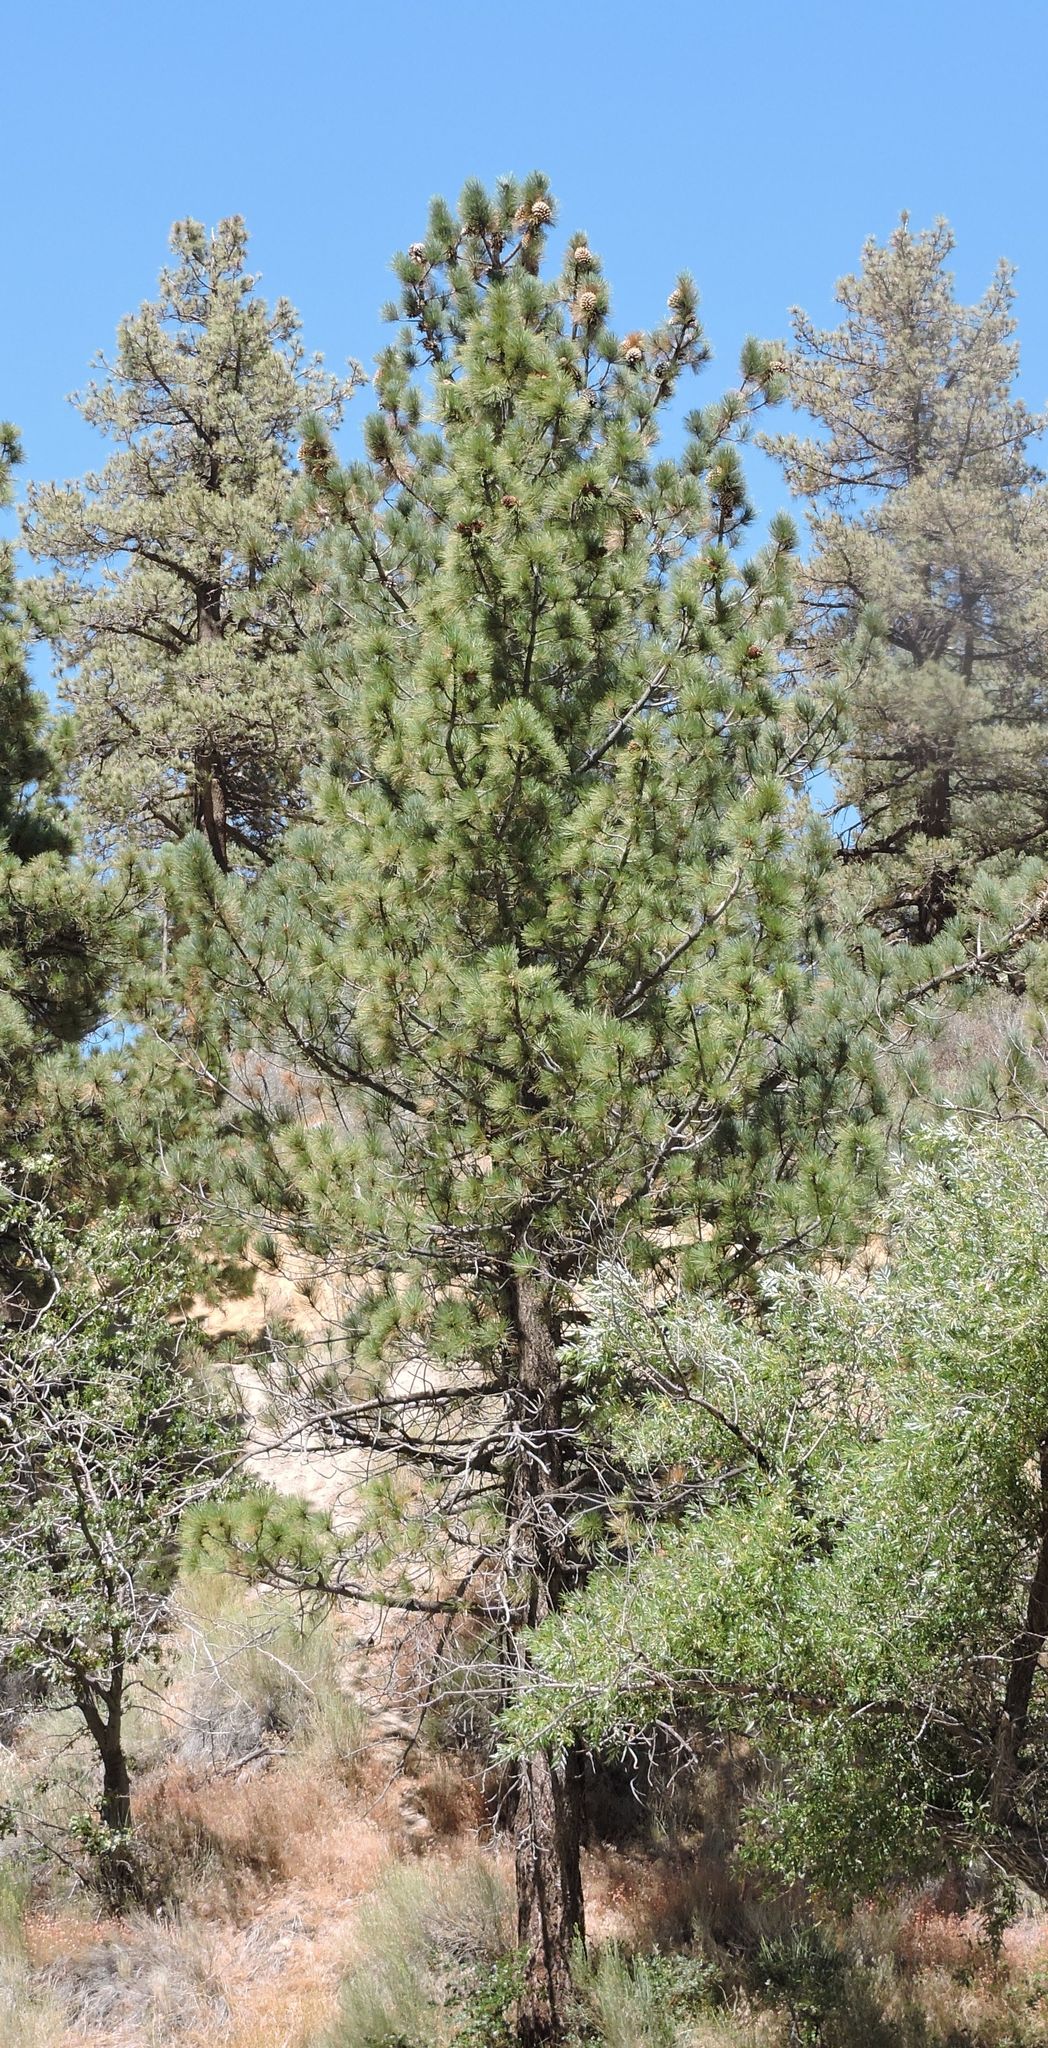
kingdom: Plantae
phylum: Tracheophyta
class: Pinopsida
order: Pinales
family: Pinaceae
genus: Pinus
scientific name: Pinus coulteri
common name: Coulter pine
